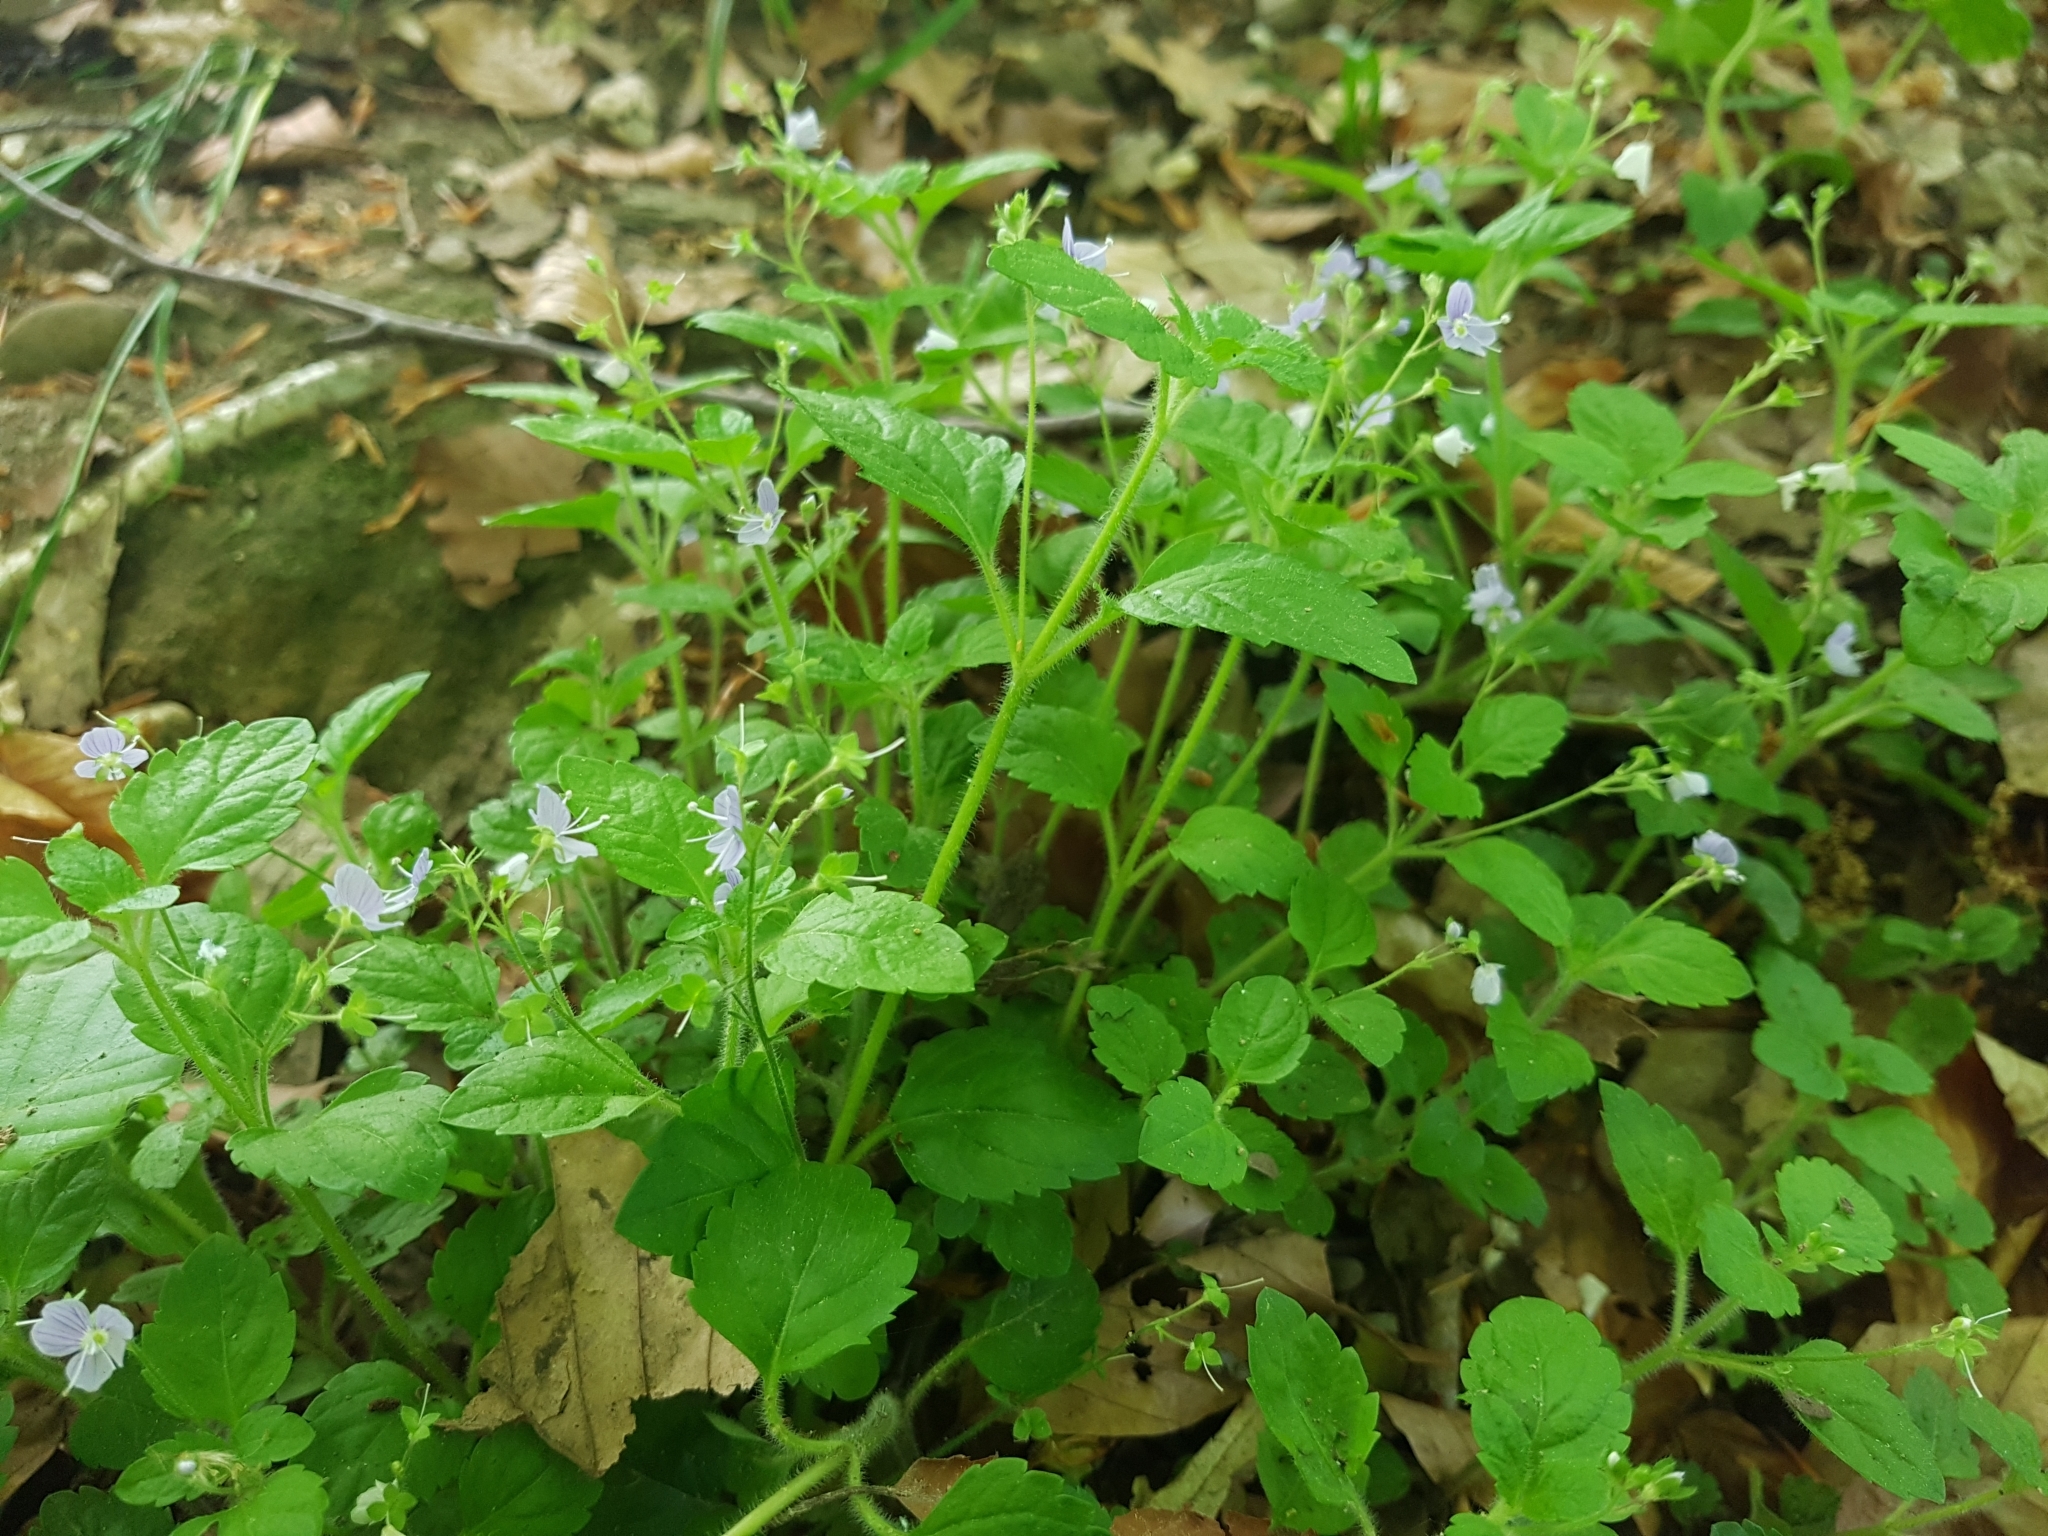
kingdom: Plantae
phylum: Tracheophyta
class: Magnoliopsida
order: Lamiales
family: Plantaginaceae
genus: Veronica
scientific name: Veronica montana
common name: Wood speedwell
